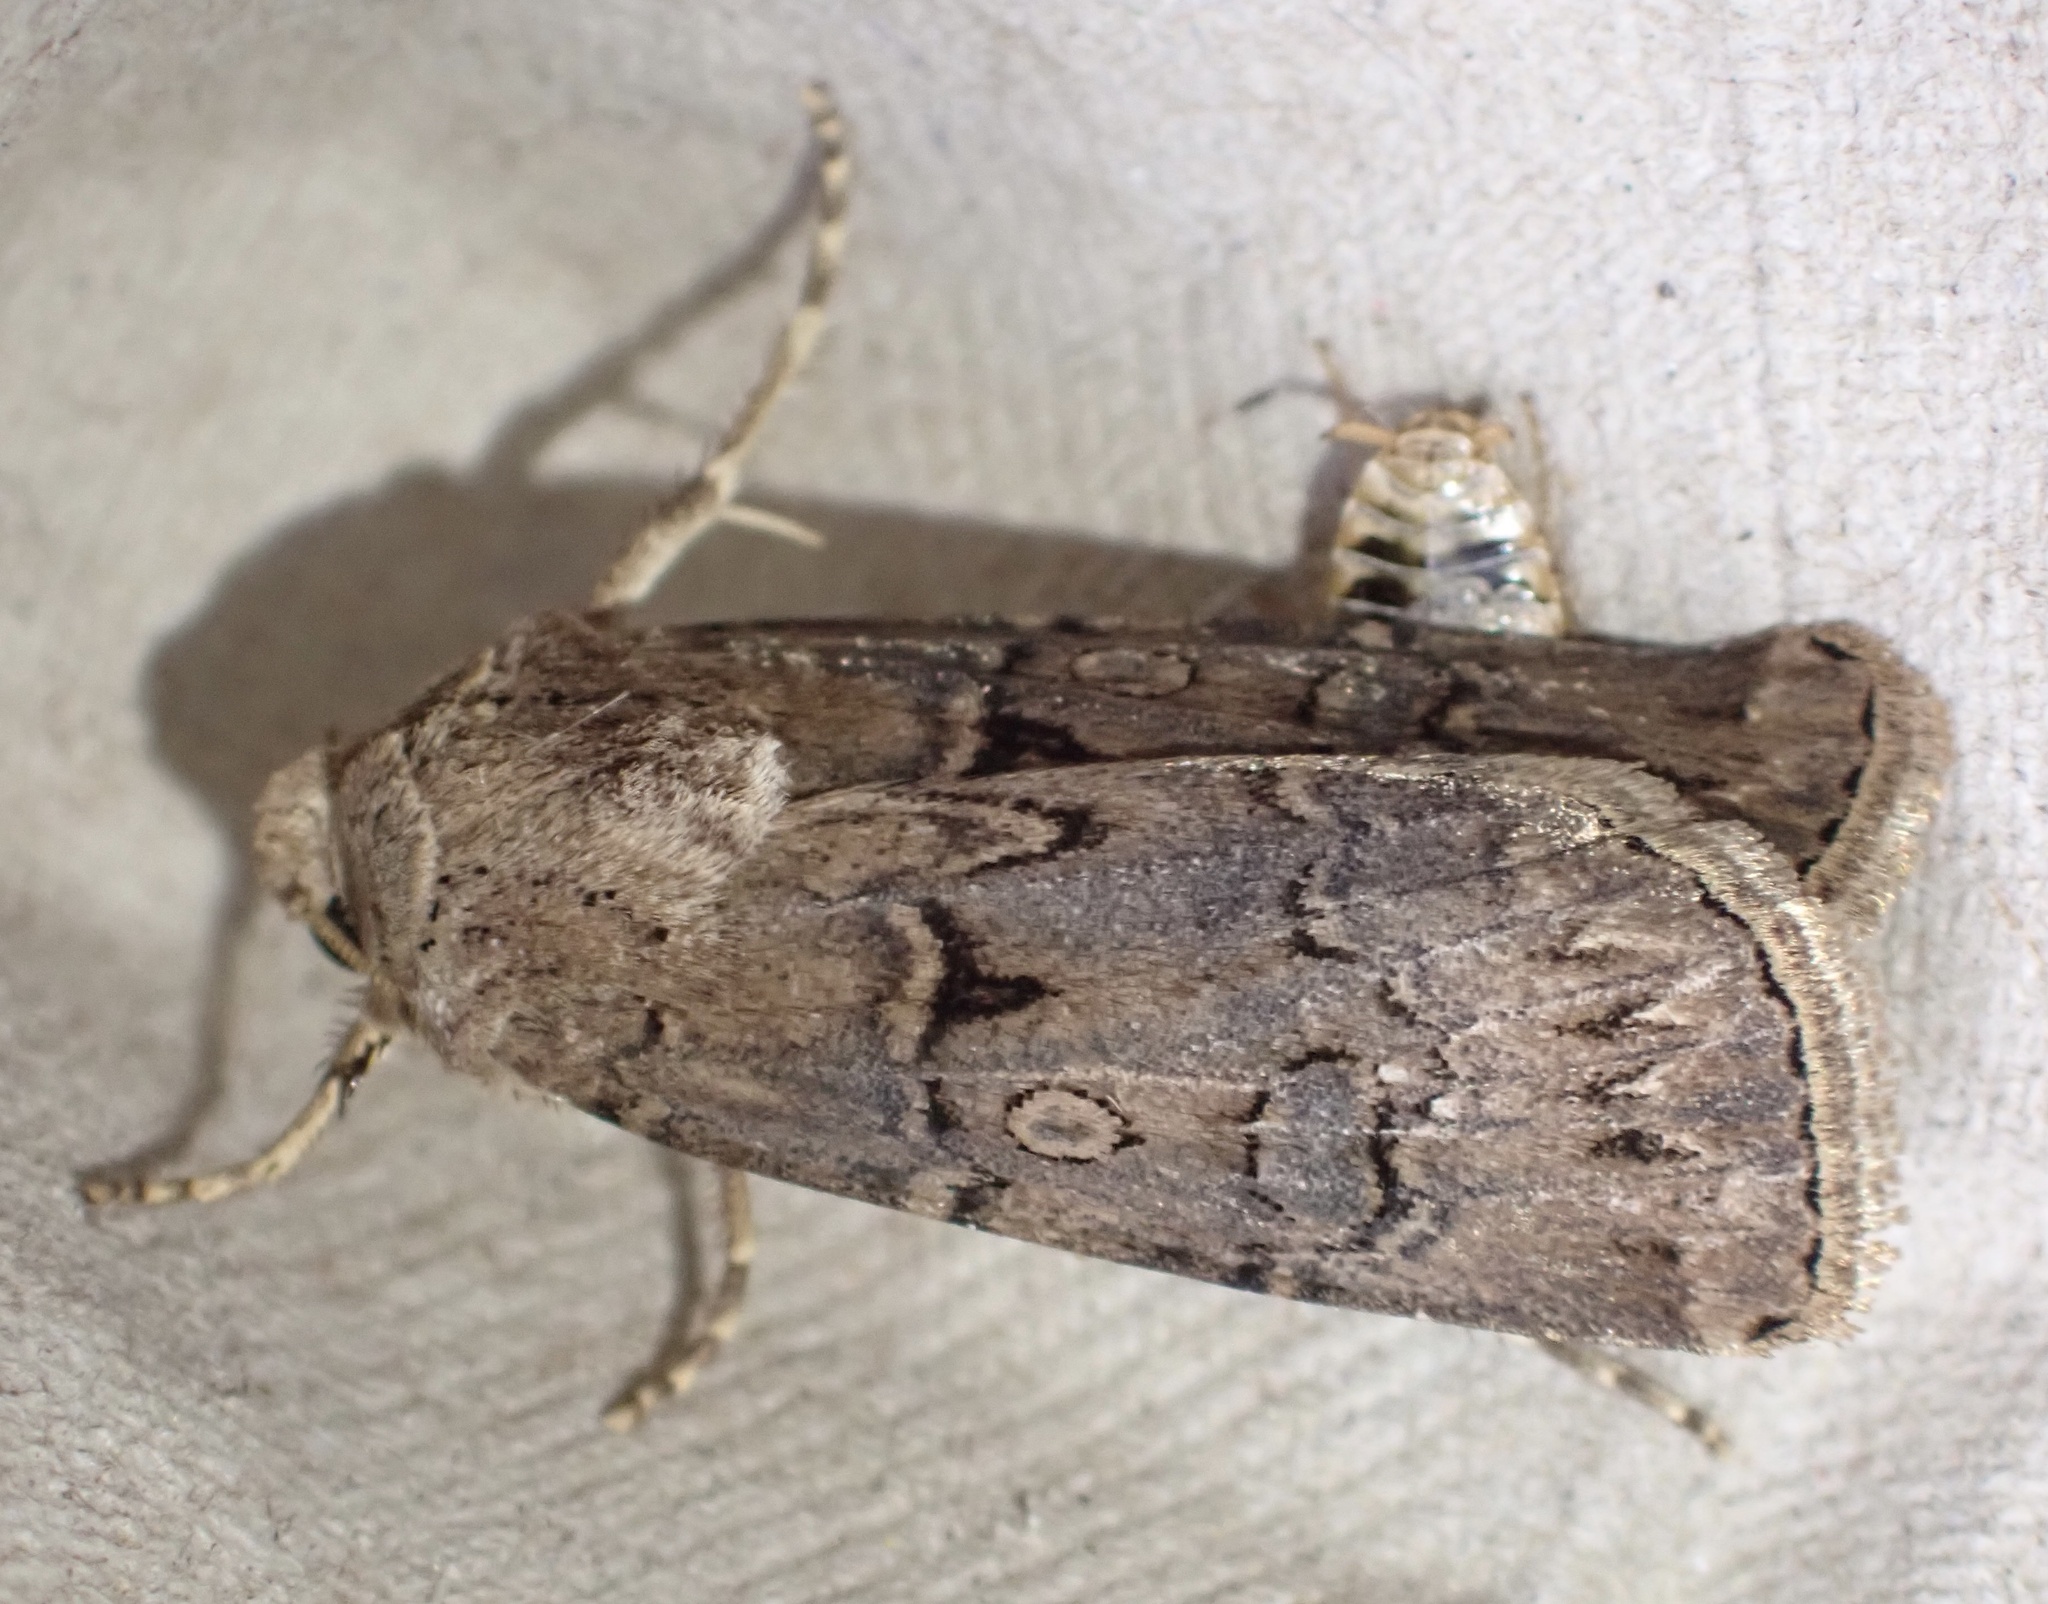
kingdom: Animalia
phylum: Arthropoda
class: Insecta
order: Lepidoptera
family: Noctuidae
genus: Agrotis
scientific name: Agrotis bigramma
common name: Great dart
